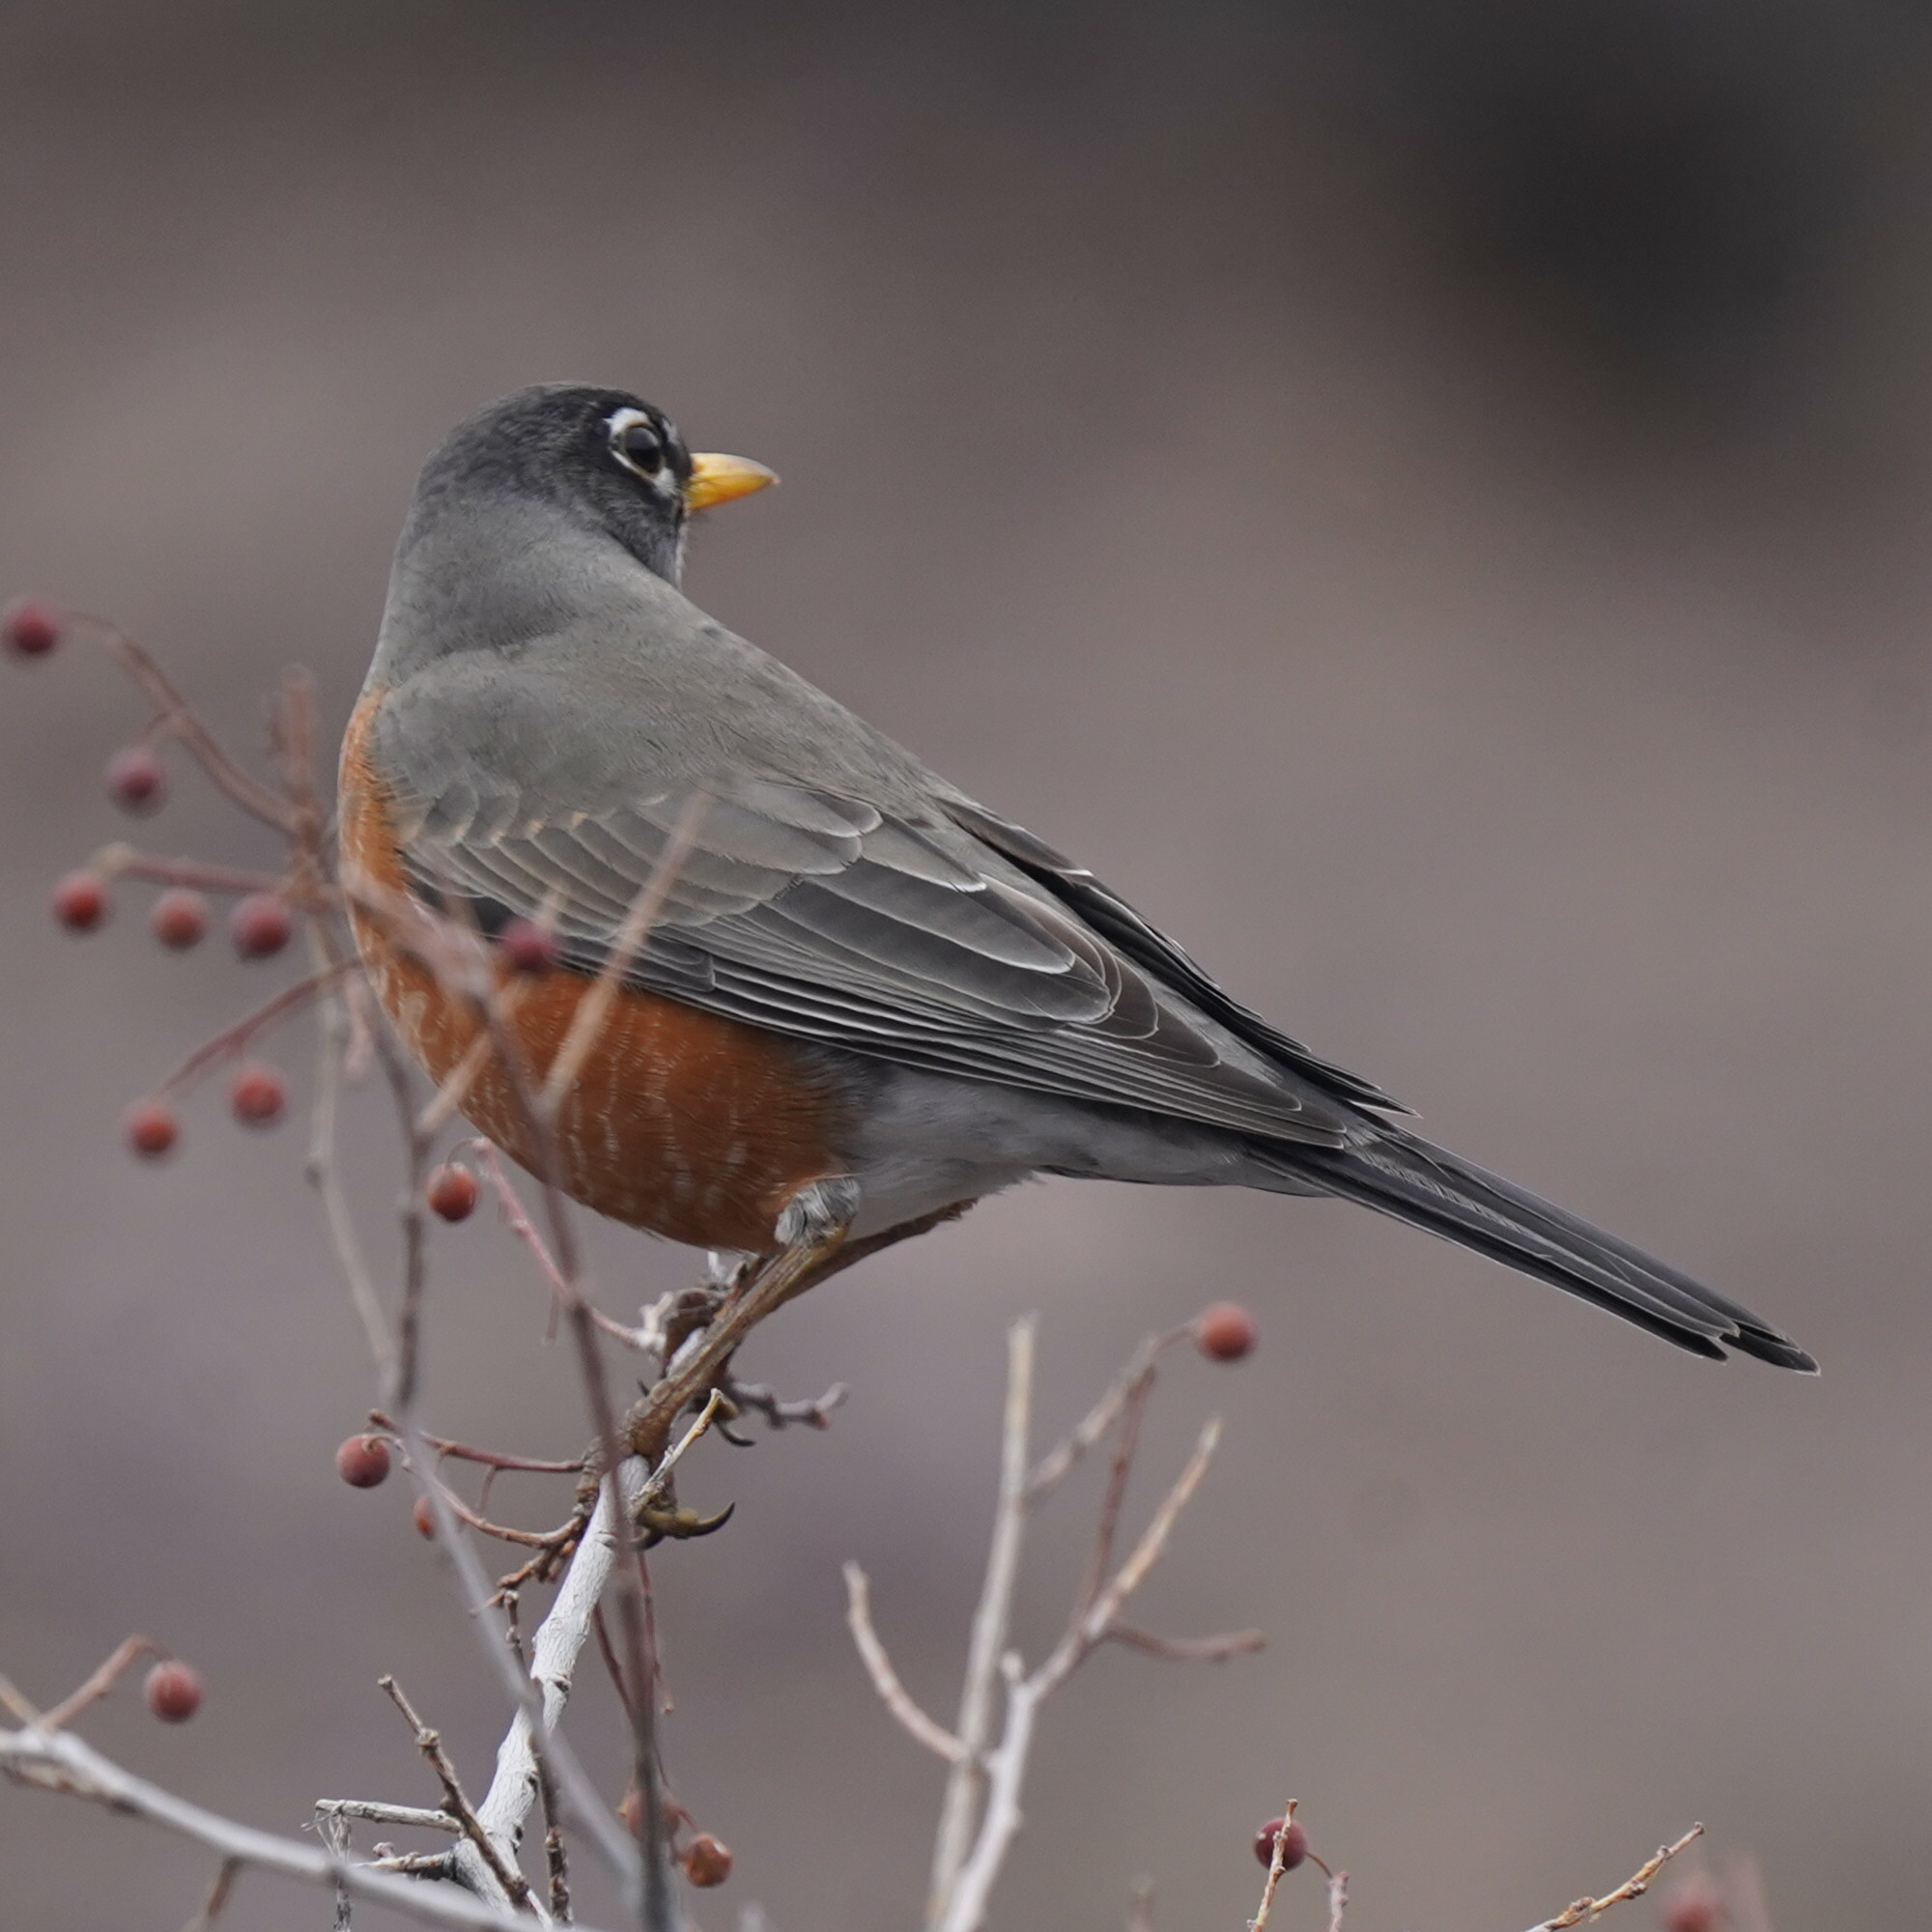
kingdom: Animalia
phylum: Chordata
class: Aves
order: Passeriformes
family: Turdidae
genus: Turdus
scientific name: Turdus migratorius
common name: American robin
